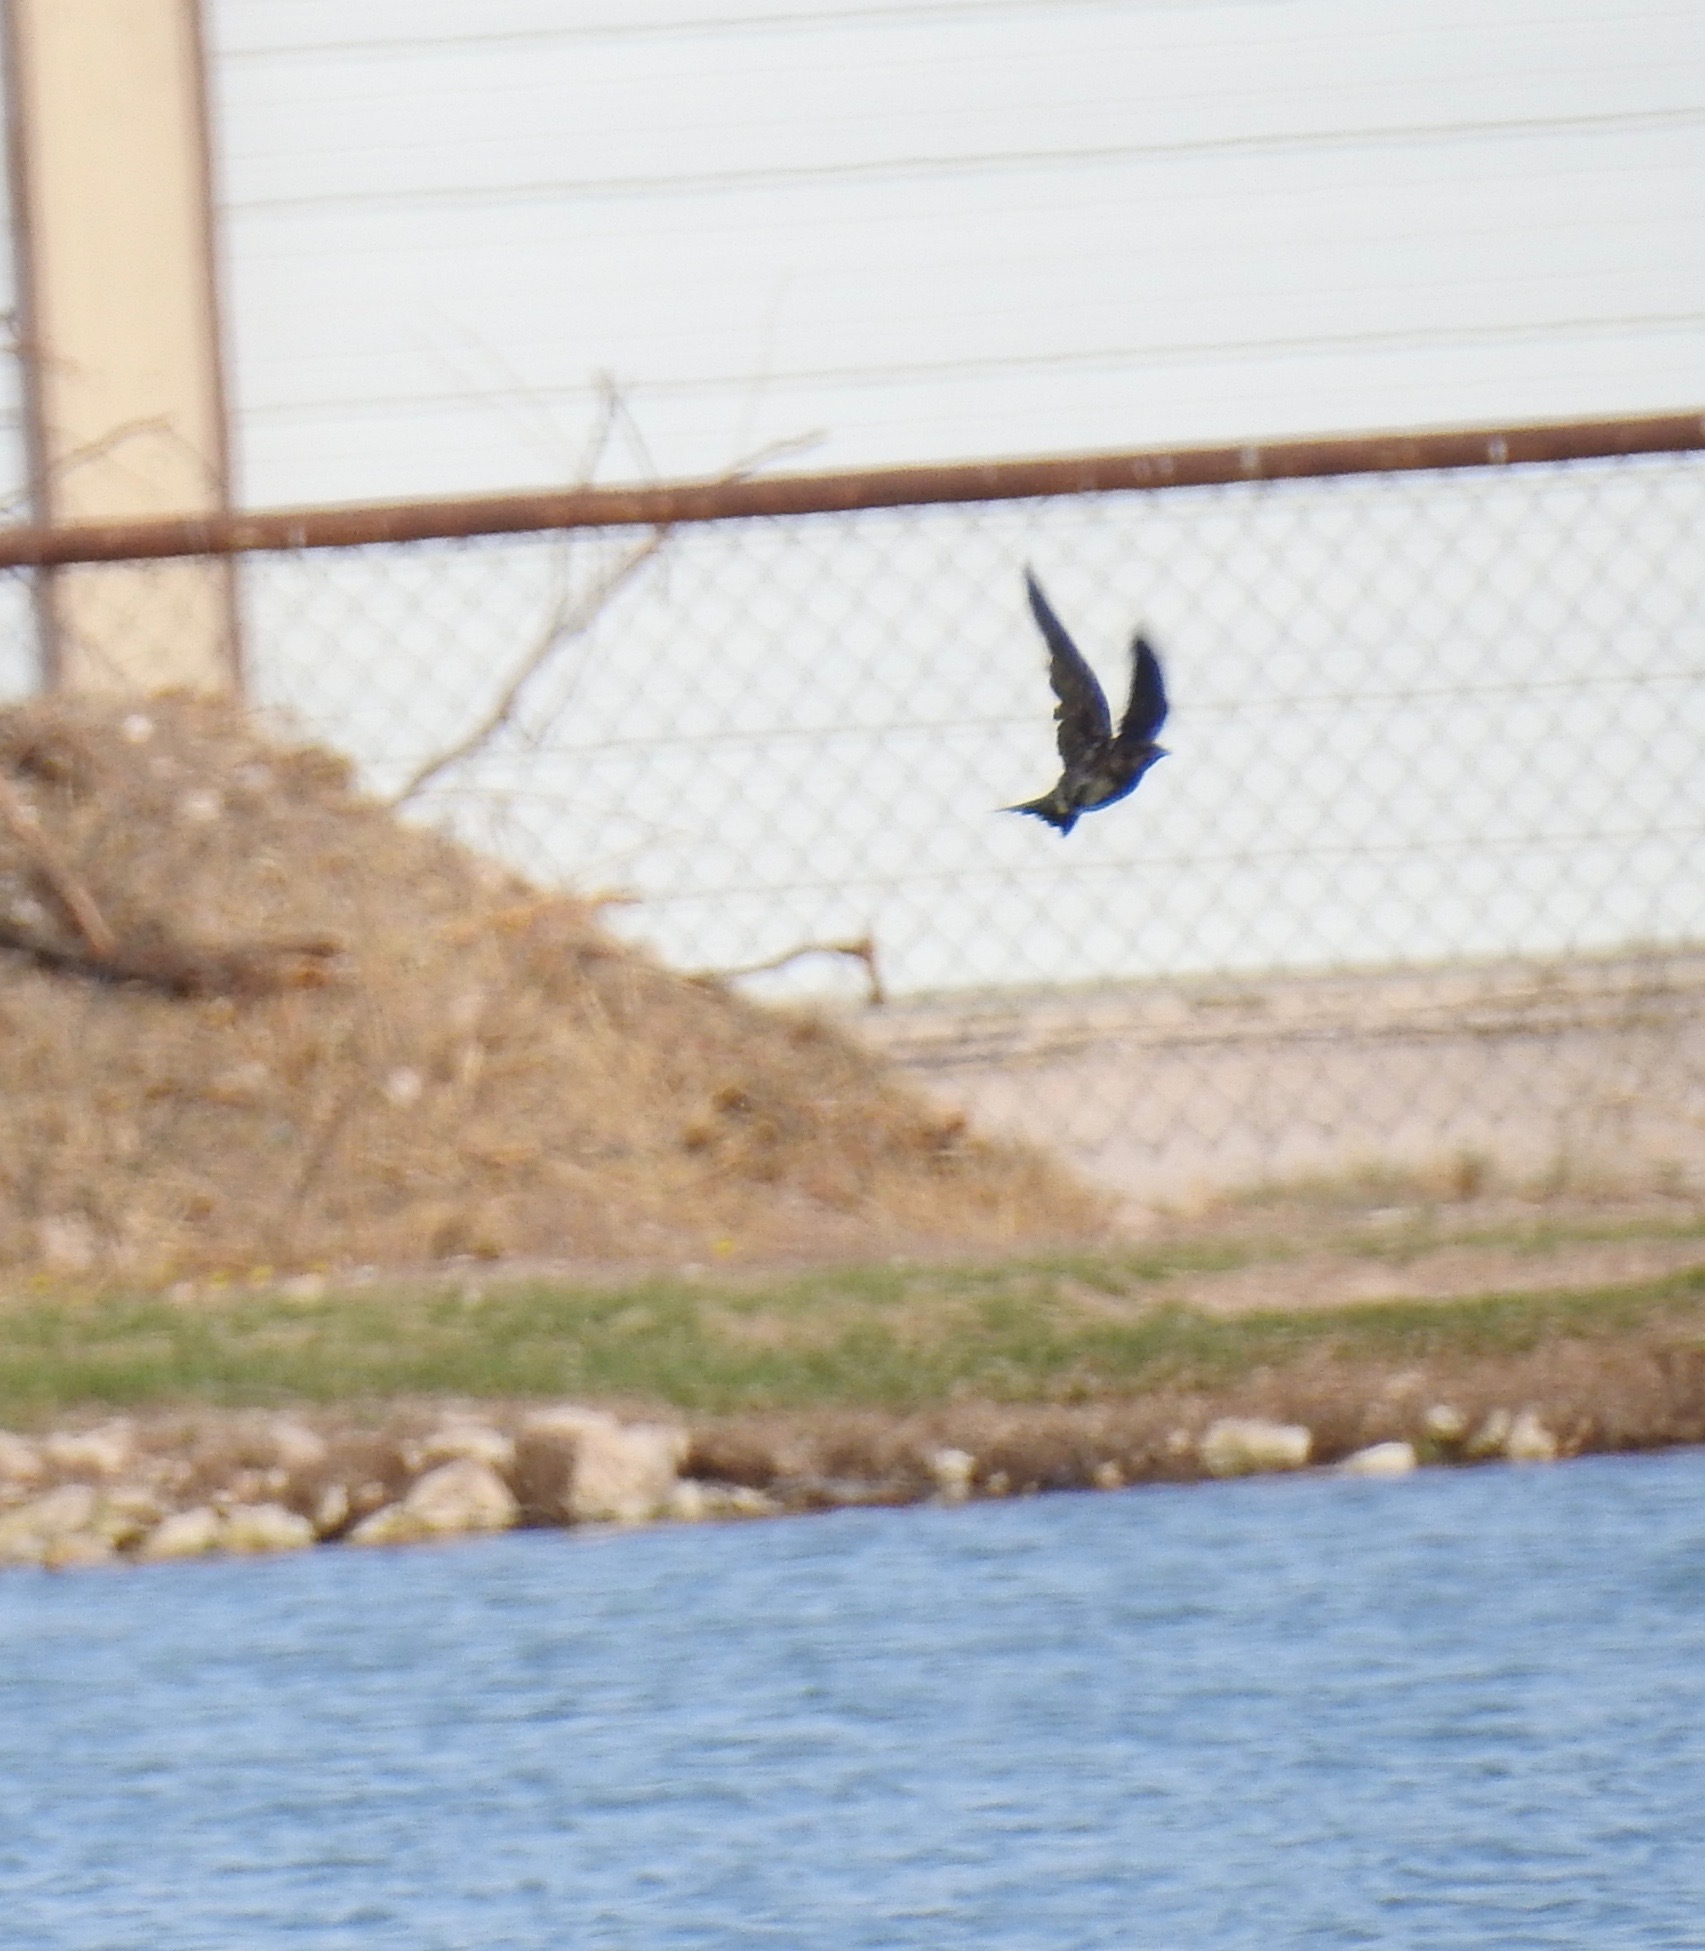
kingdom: Animalia
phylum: Chordata
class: Aves
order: Passeriformes
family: Hirundinidae
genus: Progne
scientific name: Progne subis
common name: Purple martin
